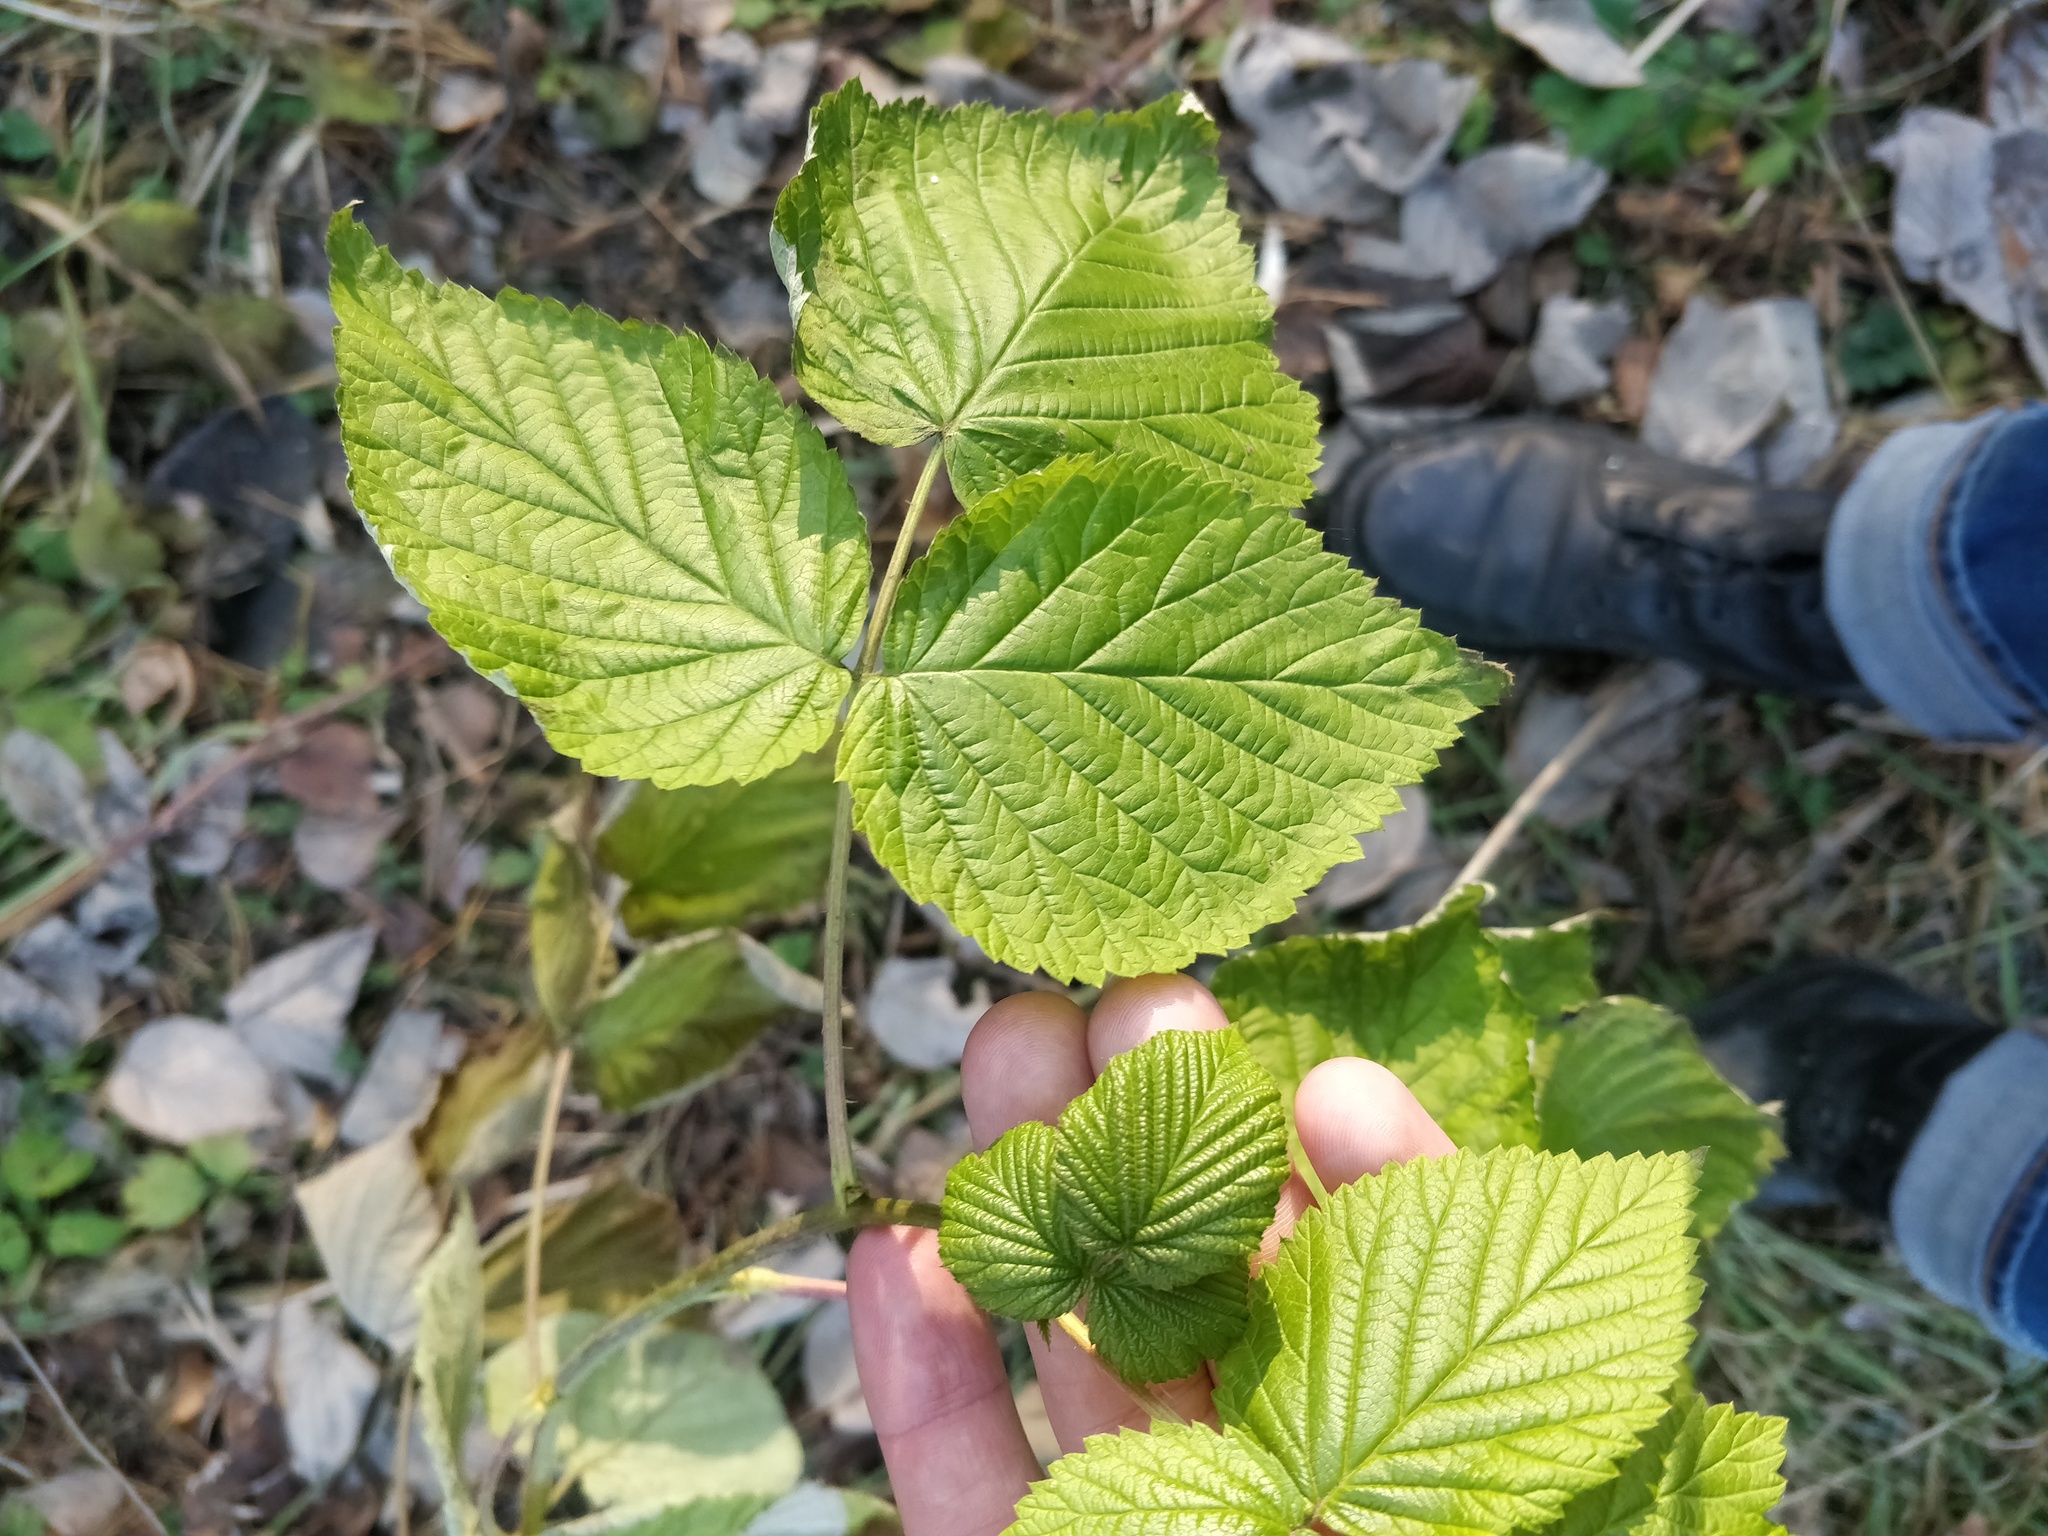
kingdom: Plantae
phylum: Tracheophyta
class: Magnoliopsida
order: Rosales
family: Rosaceae
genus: Rubus
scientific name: Rubus idaeus
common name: Raspberry
